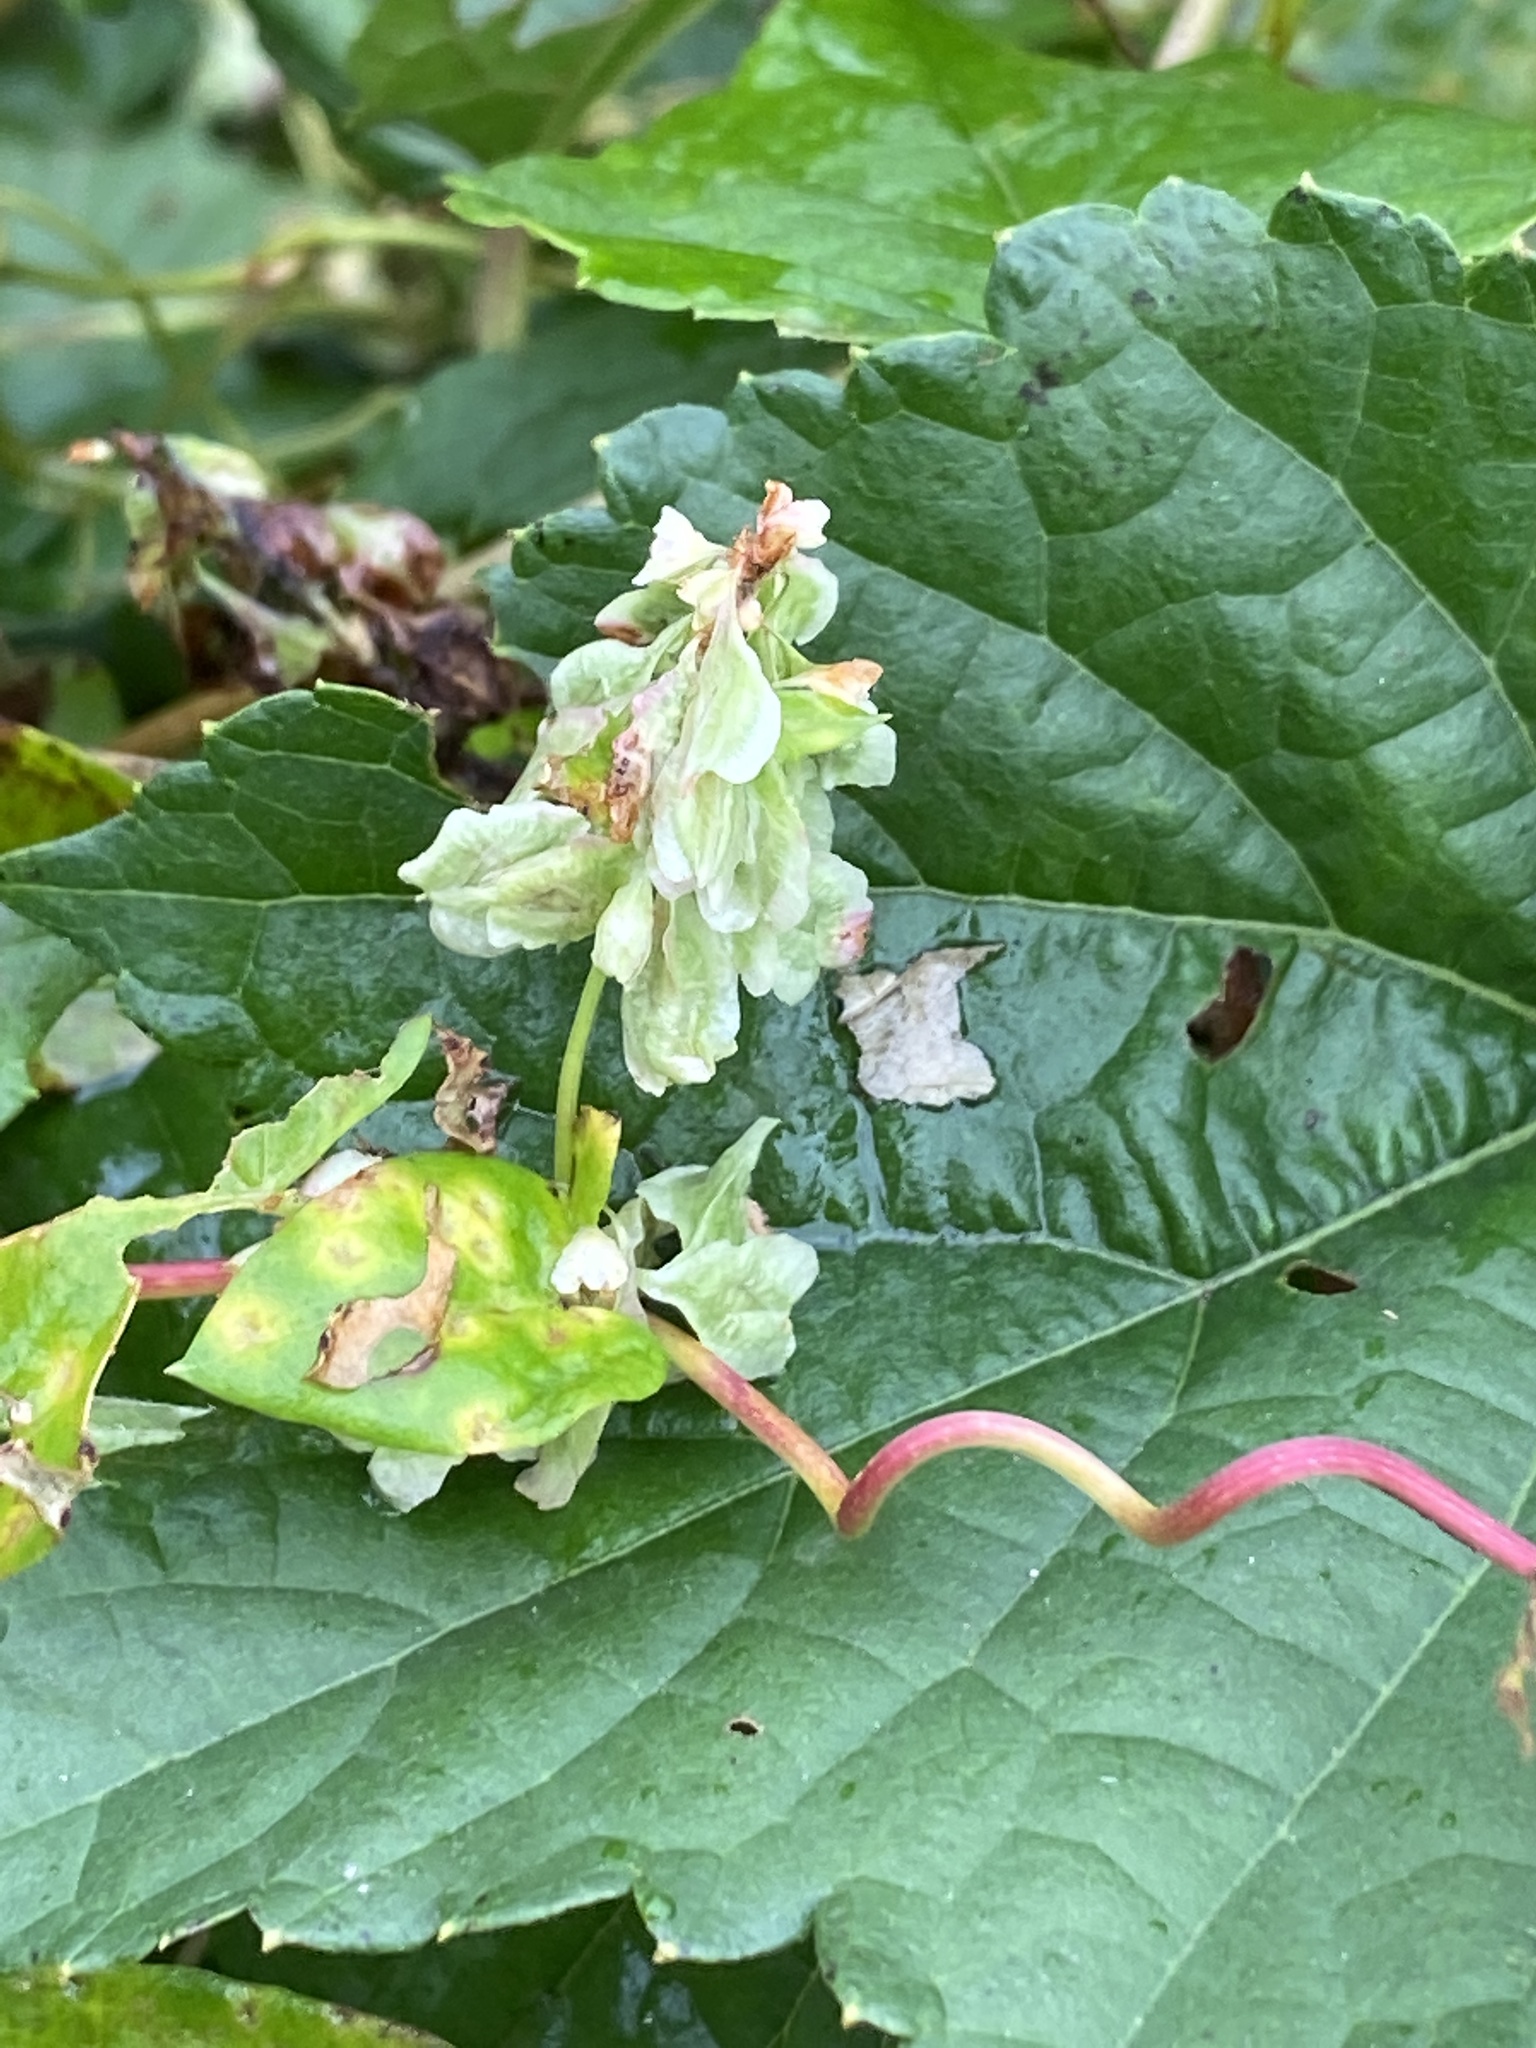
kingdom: Plantae
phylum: Tracheophyta
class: Magnoliopsida
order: Caryophyllales
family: Polygonaceae
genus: Fallopia
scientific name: Fallopia scandens
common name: Climbing false buckwheat
